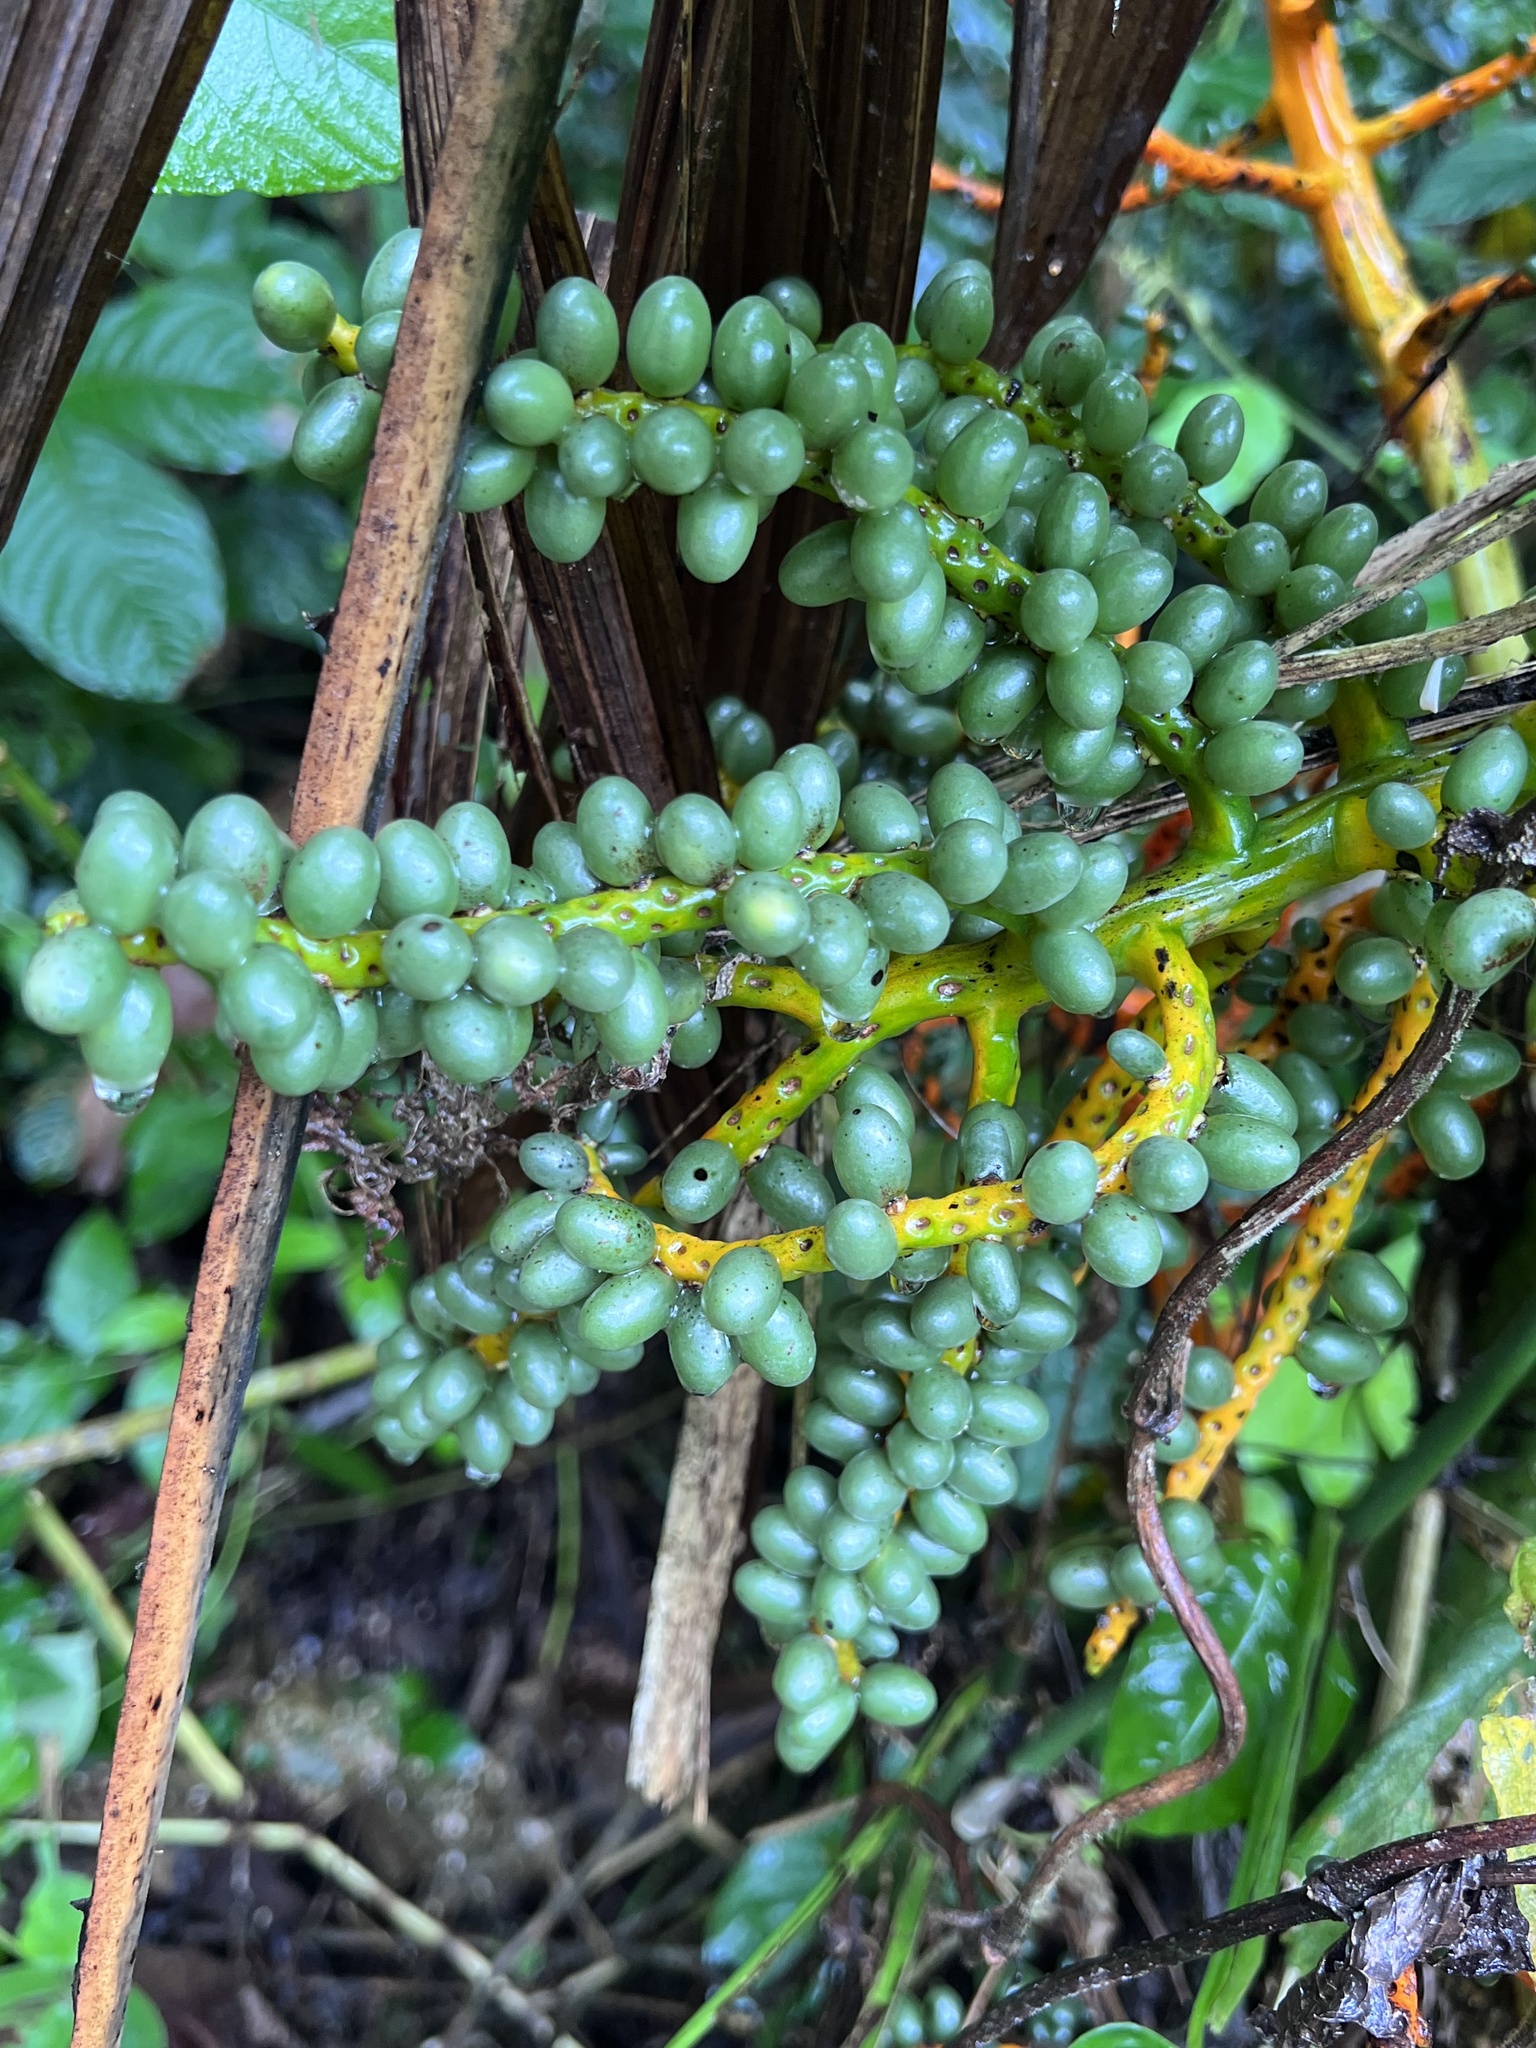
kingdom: Plantae
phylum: Tracheophyta
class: Liliopsida
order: Arecales
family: Arecaceae
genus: Chamaedorea
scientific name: Chamaedorea tepejilote
